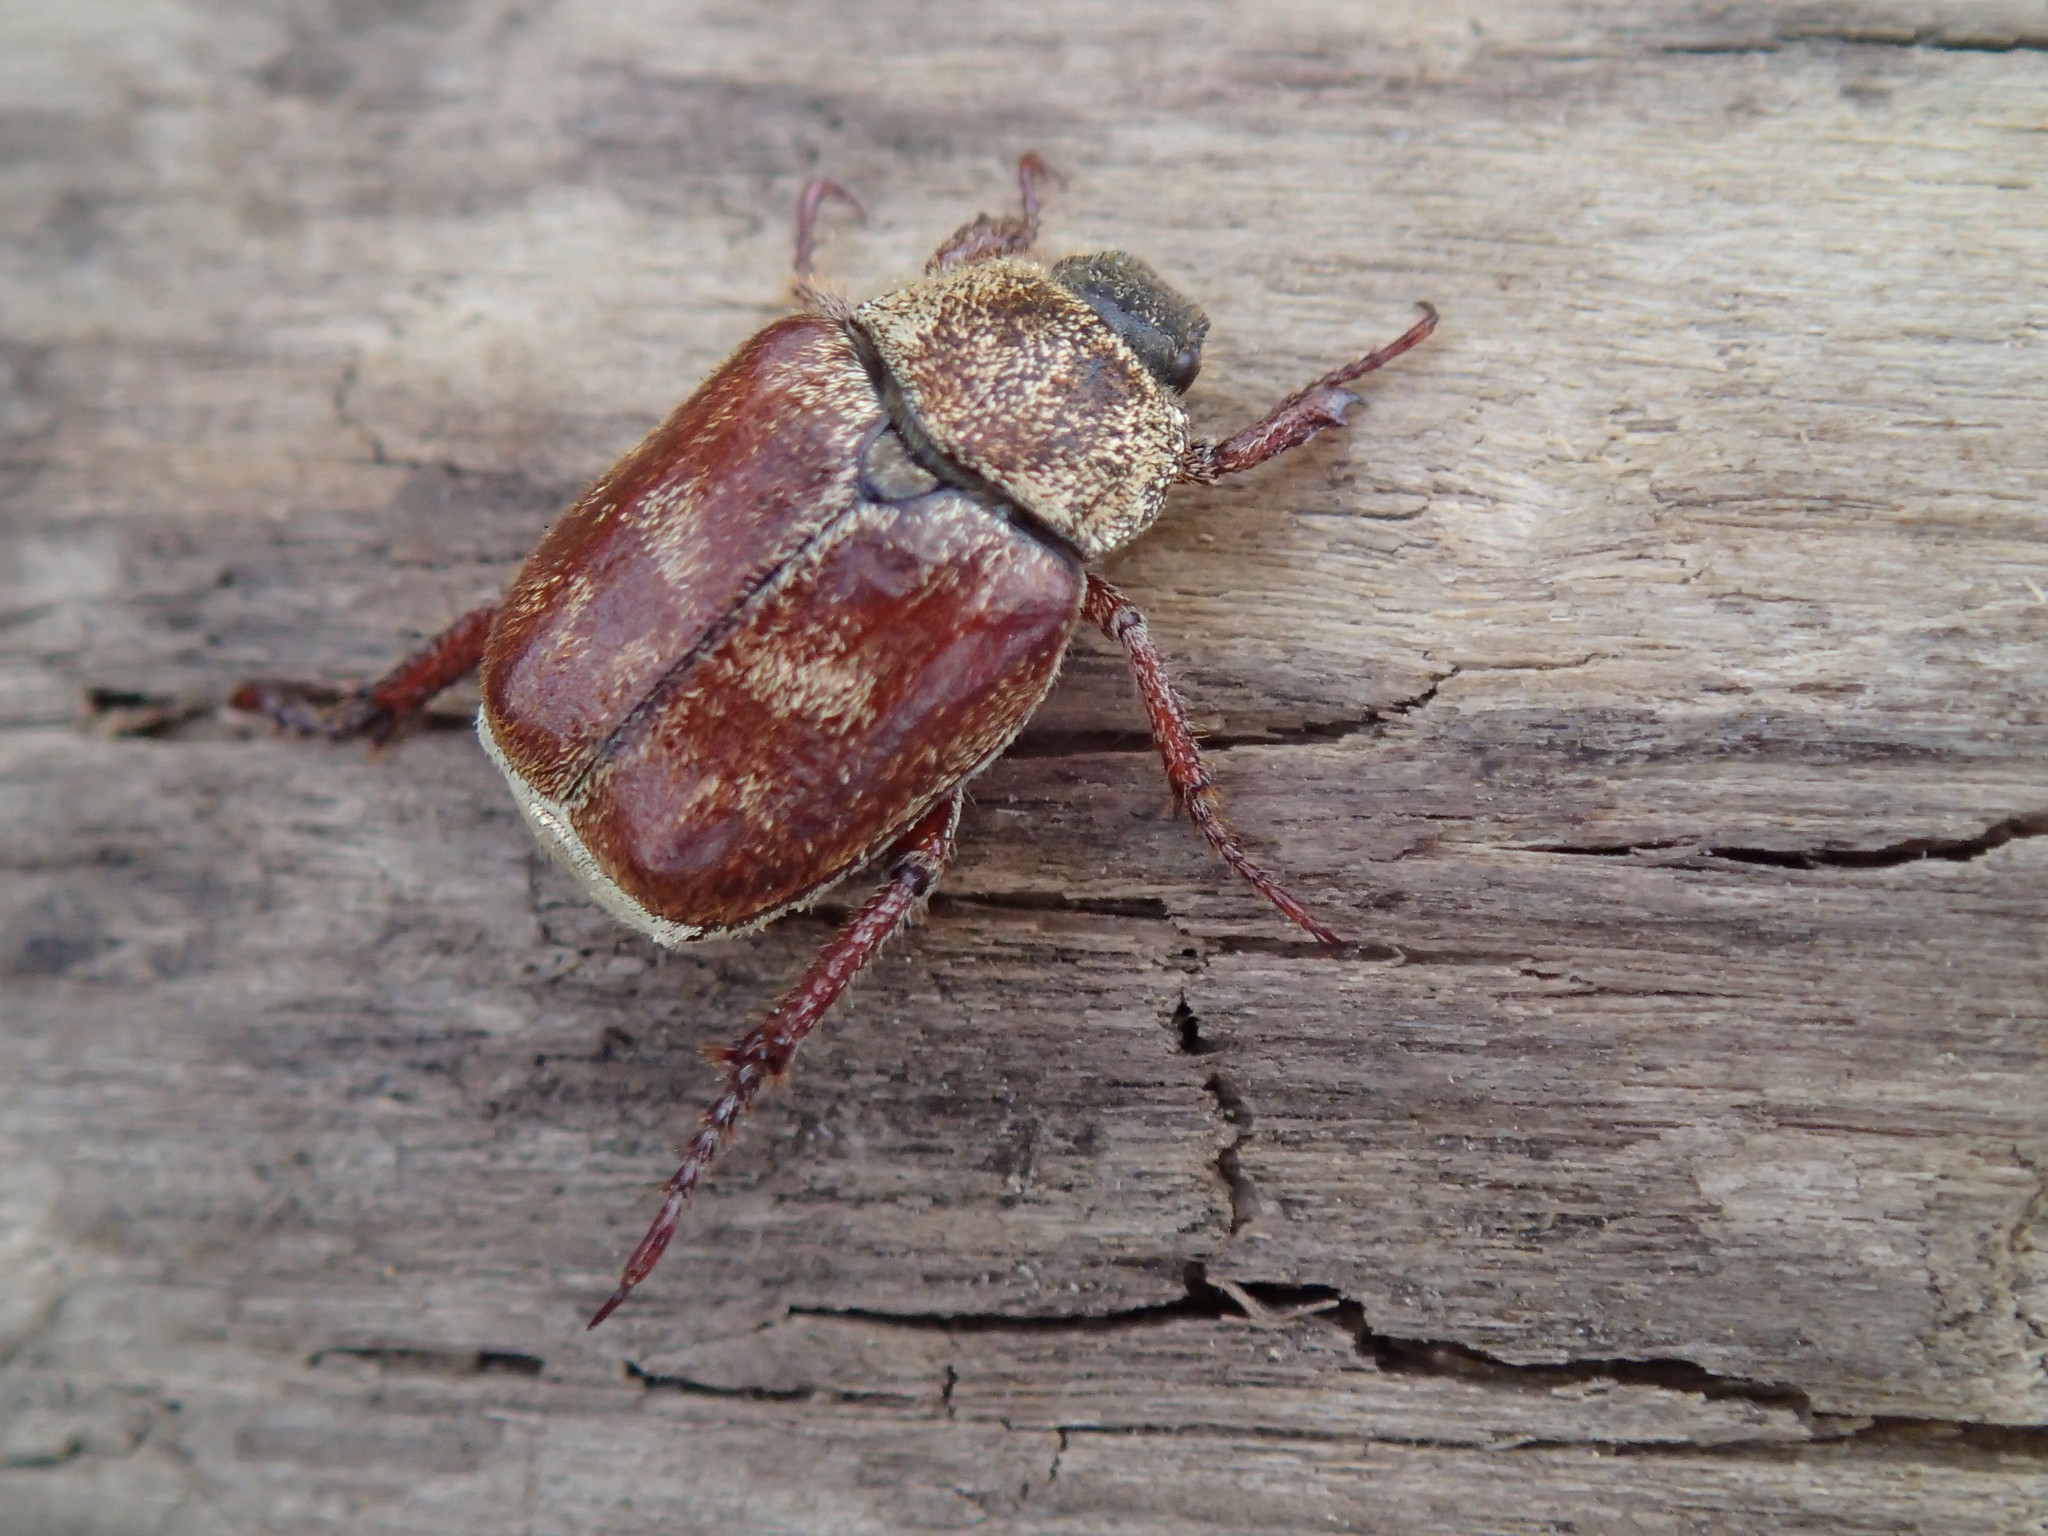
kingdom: Animalia
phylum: Arthropoda
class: Insecta
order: Coleoptera
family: Scarabaeidae
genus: Hoplia
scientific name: Hoplia trifasciata
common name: Three-lined hoplia
